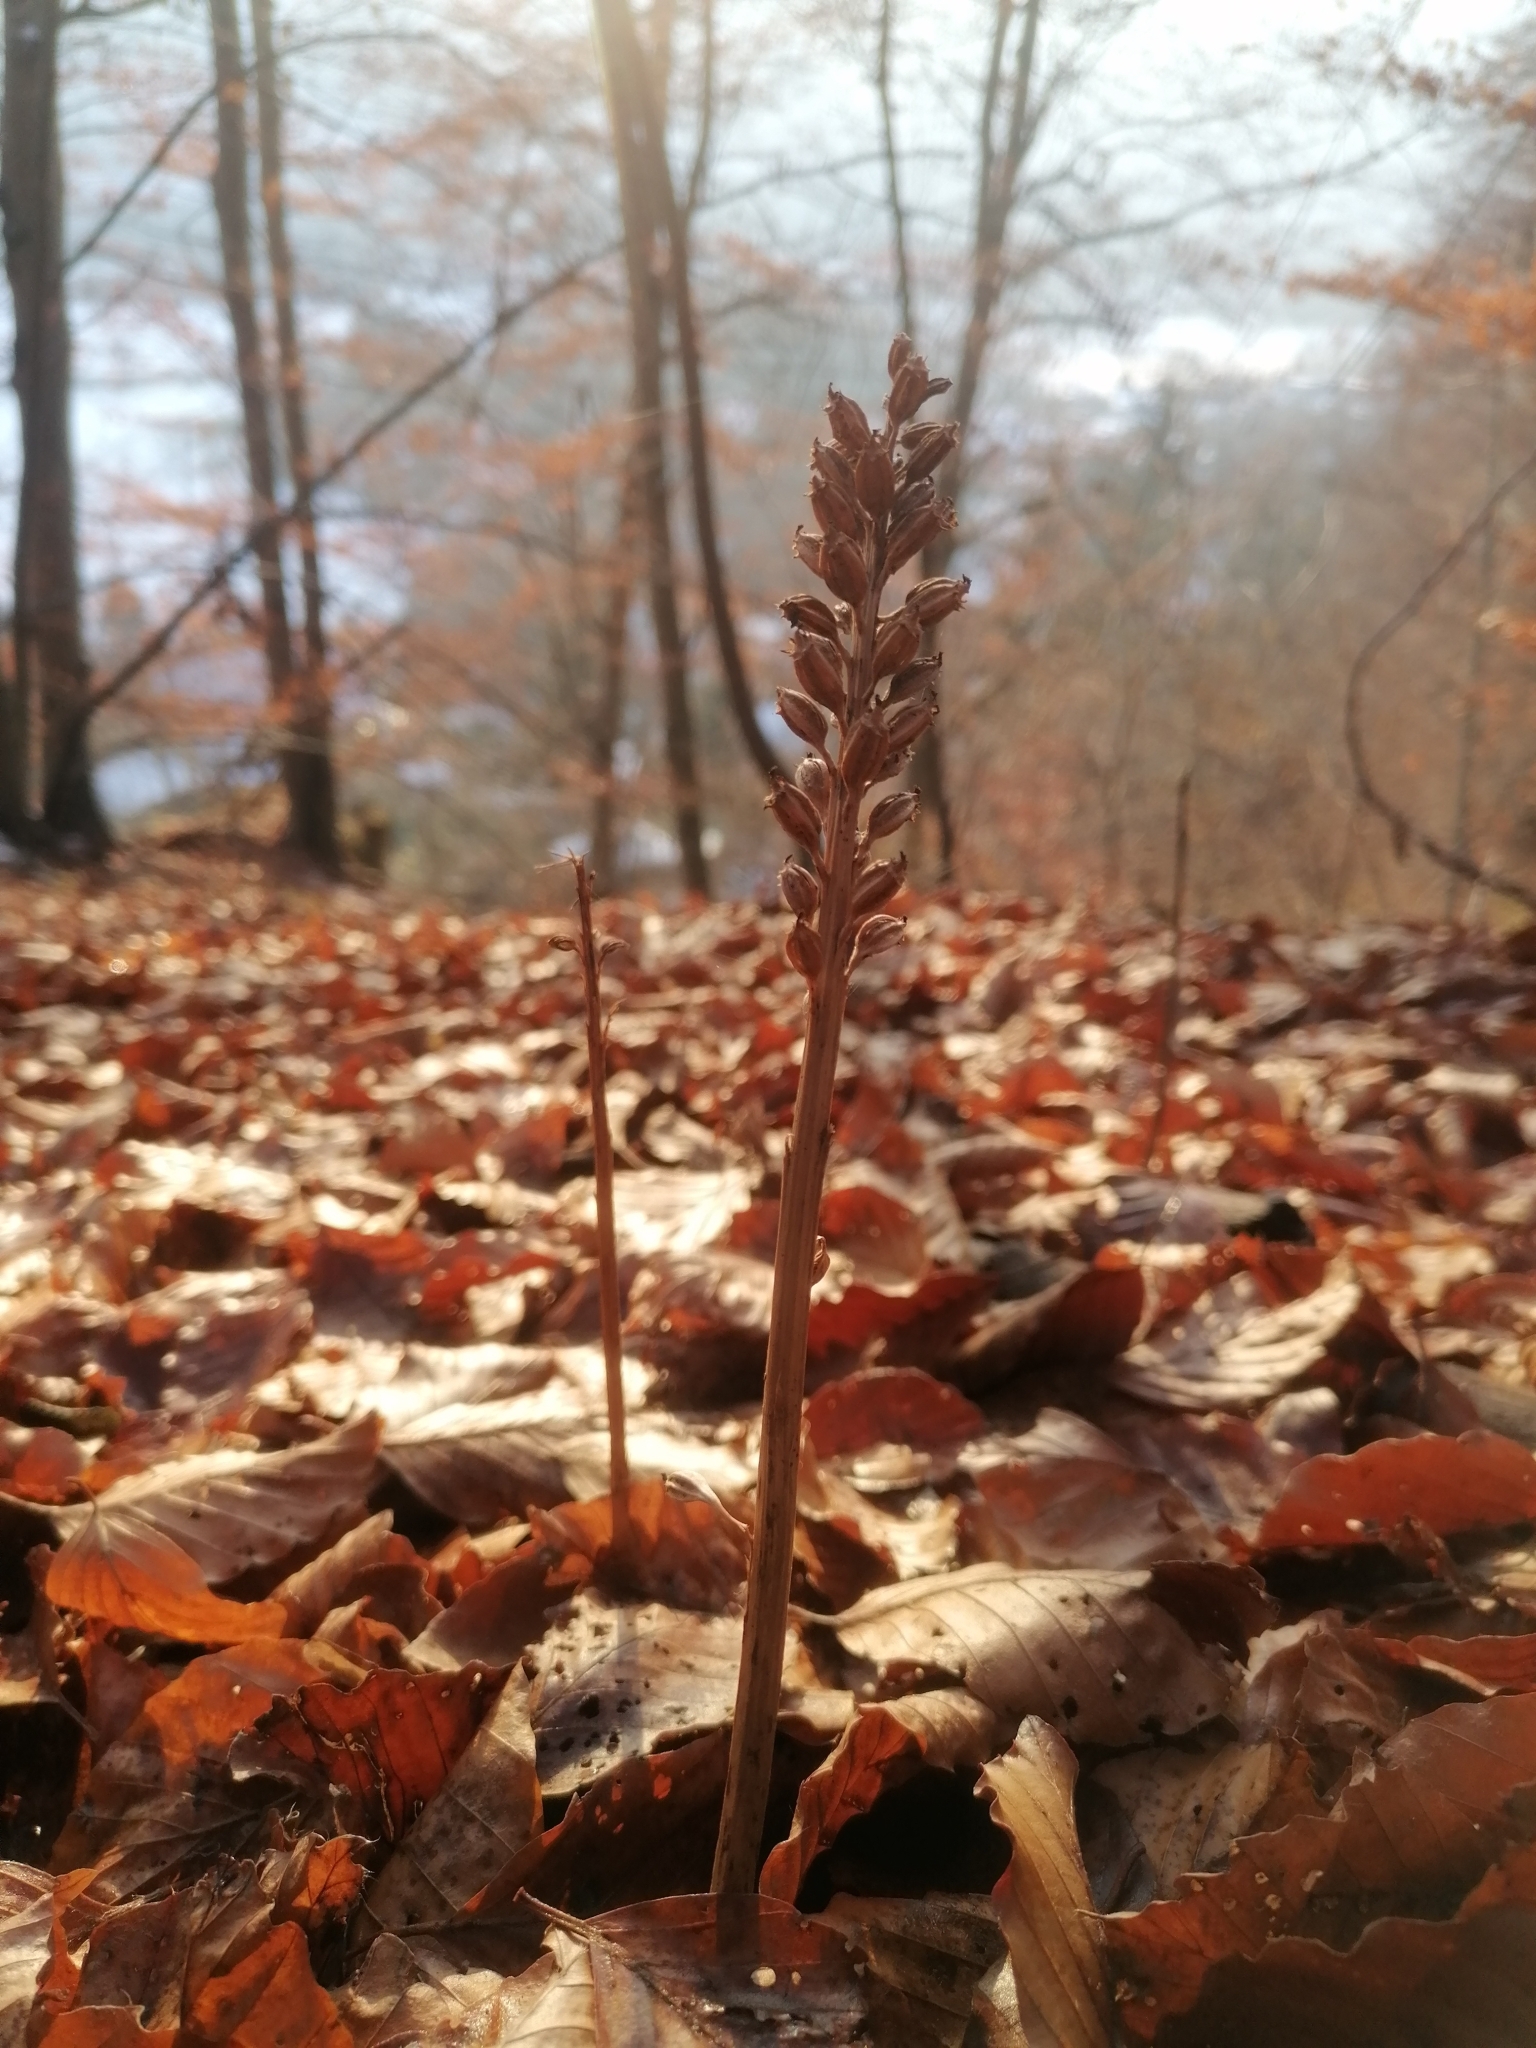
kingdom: Plantae
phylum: Tracheophyta
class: Liliopsida
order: Asparagales
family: Orchidaceae
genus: Neottia
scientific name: Neottia nidus-avis
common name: Bird's-nest orchid
